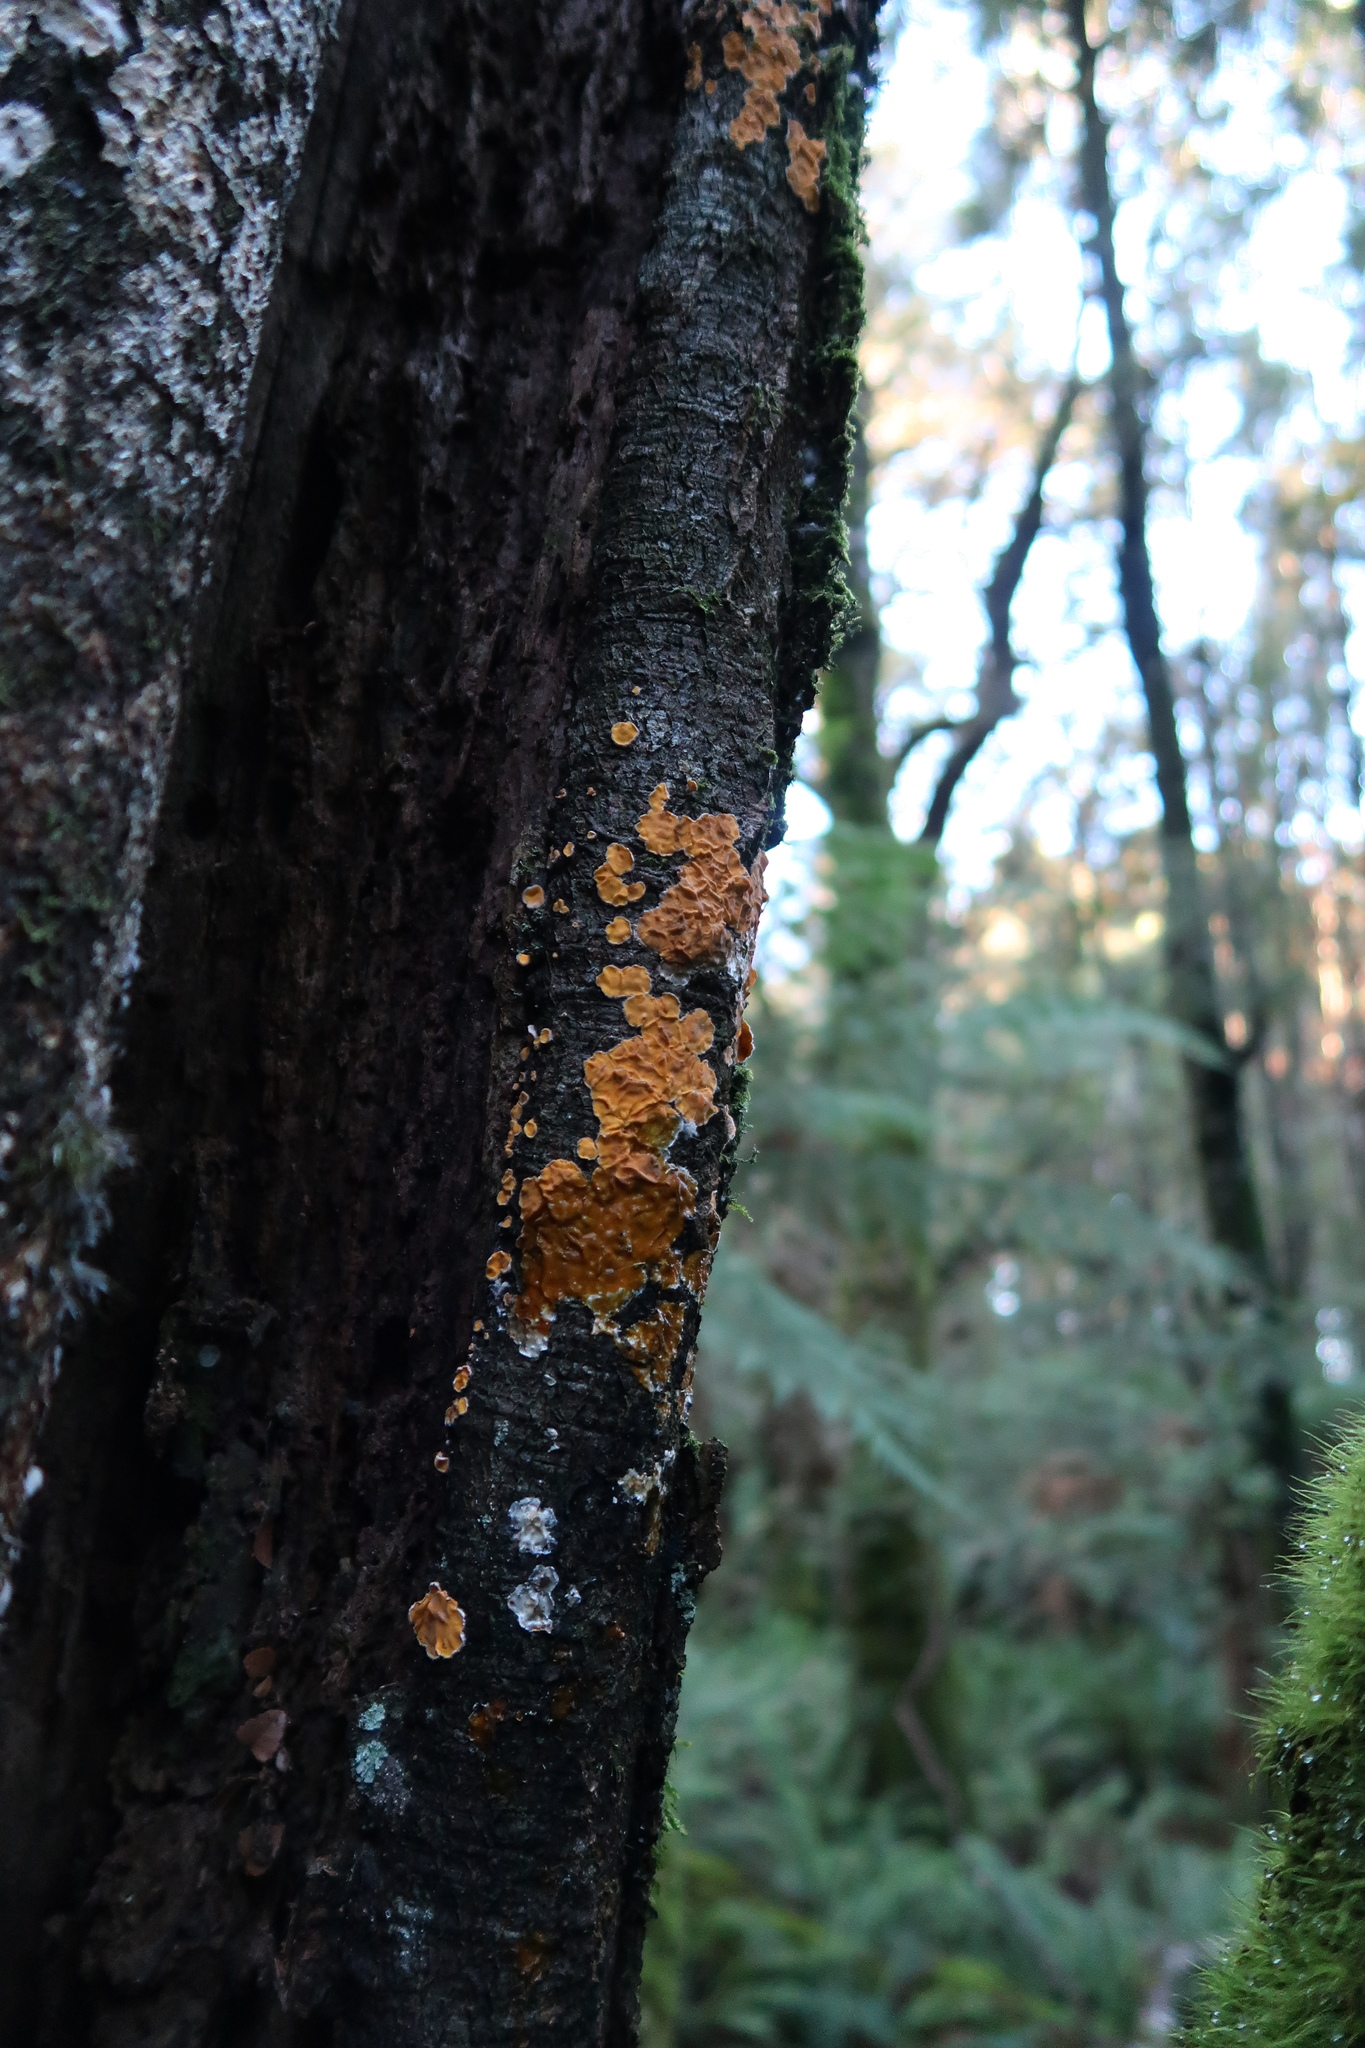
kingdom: Fungi
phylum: Basidiomycota
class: Agaricomycetes
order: Russulales
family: Stereaceae
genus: Stereodiscus
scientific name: Stereodiscus limonisporus
